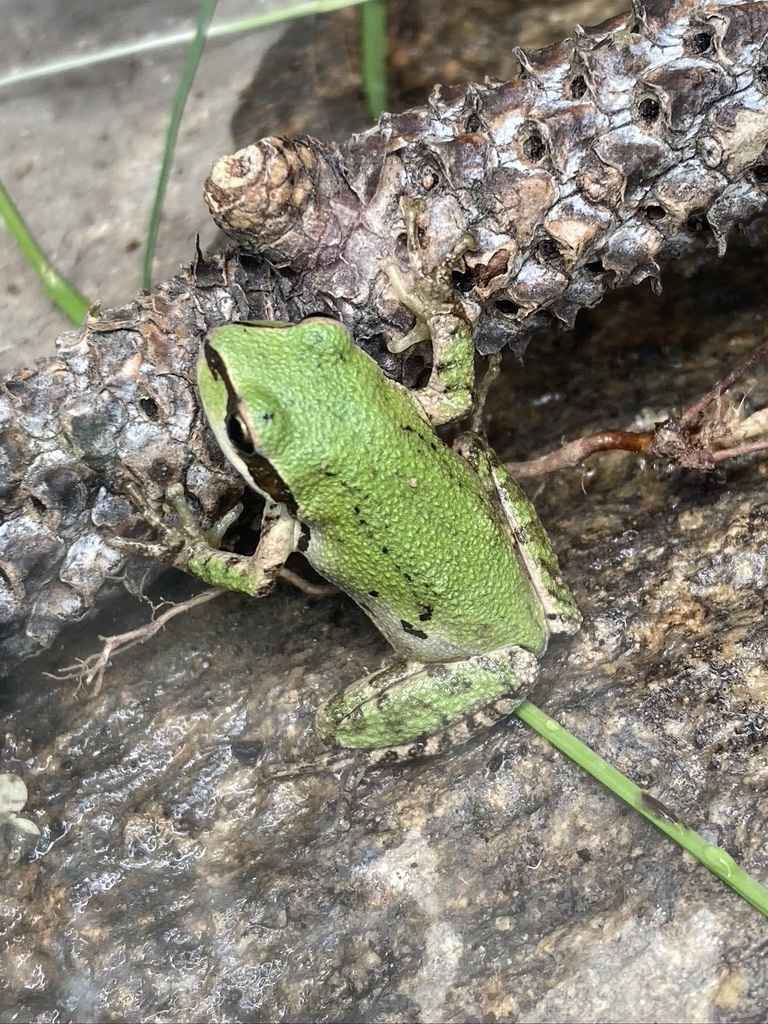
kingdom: Animalia
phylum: Chordata
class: Amphibia
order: Anura
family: Hylidae
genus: Pseudacris
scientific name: Pseudacris regilla
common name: Pacific chorus frog
